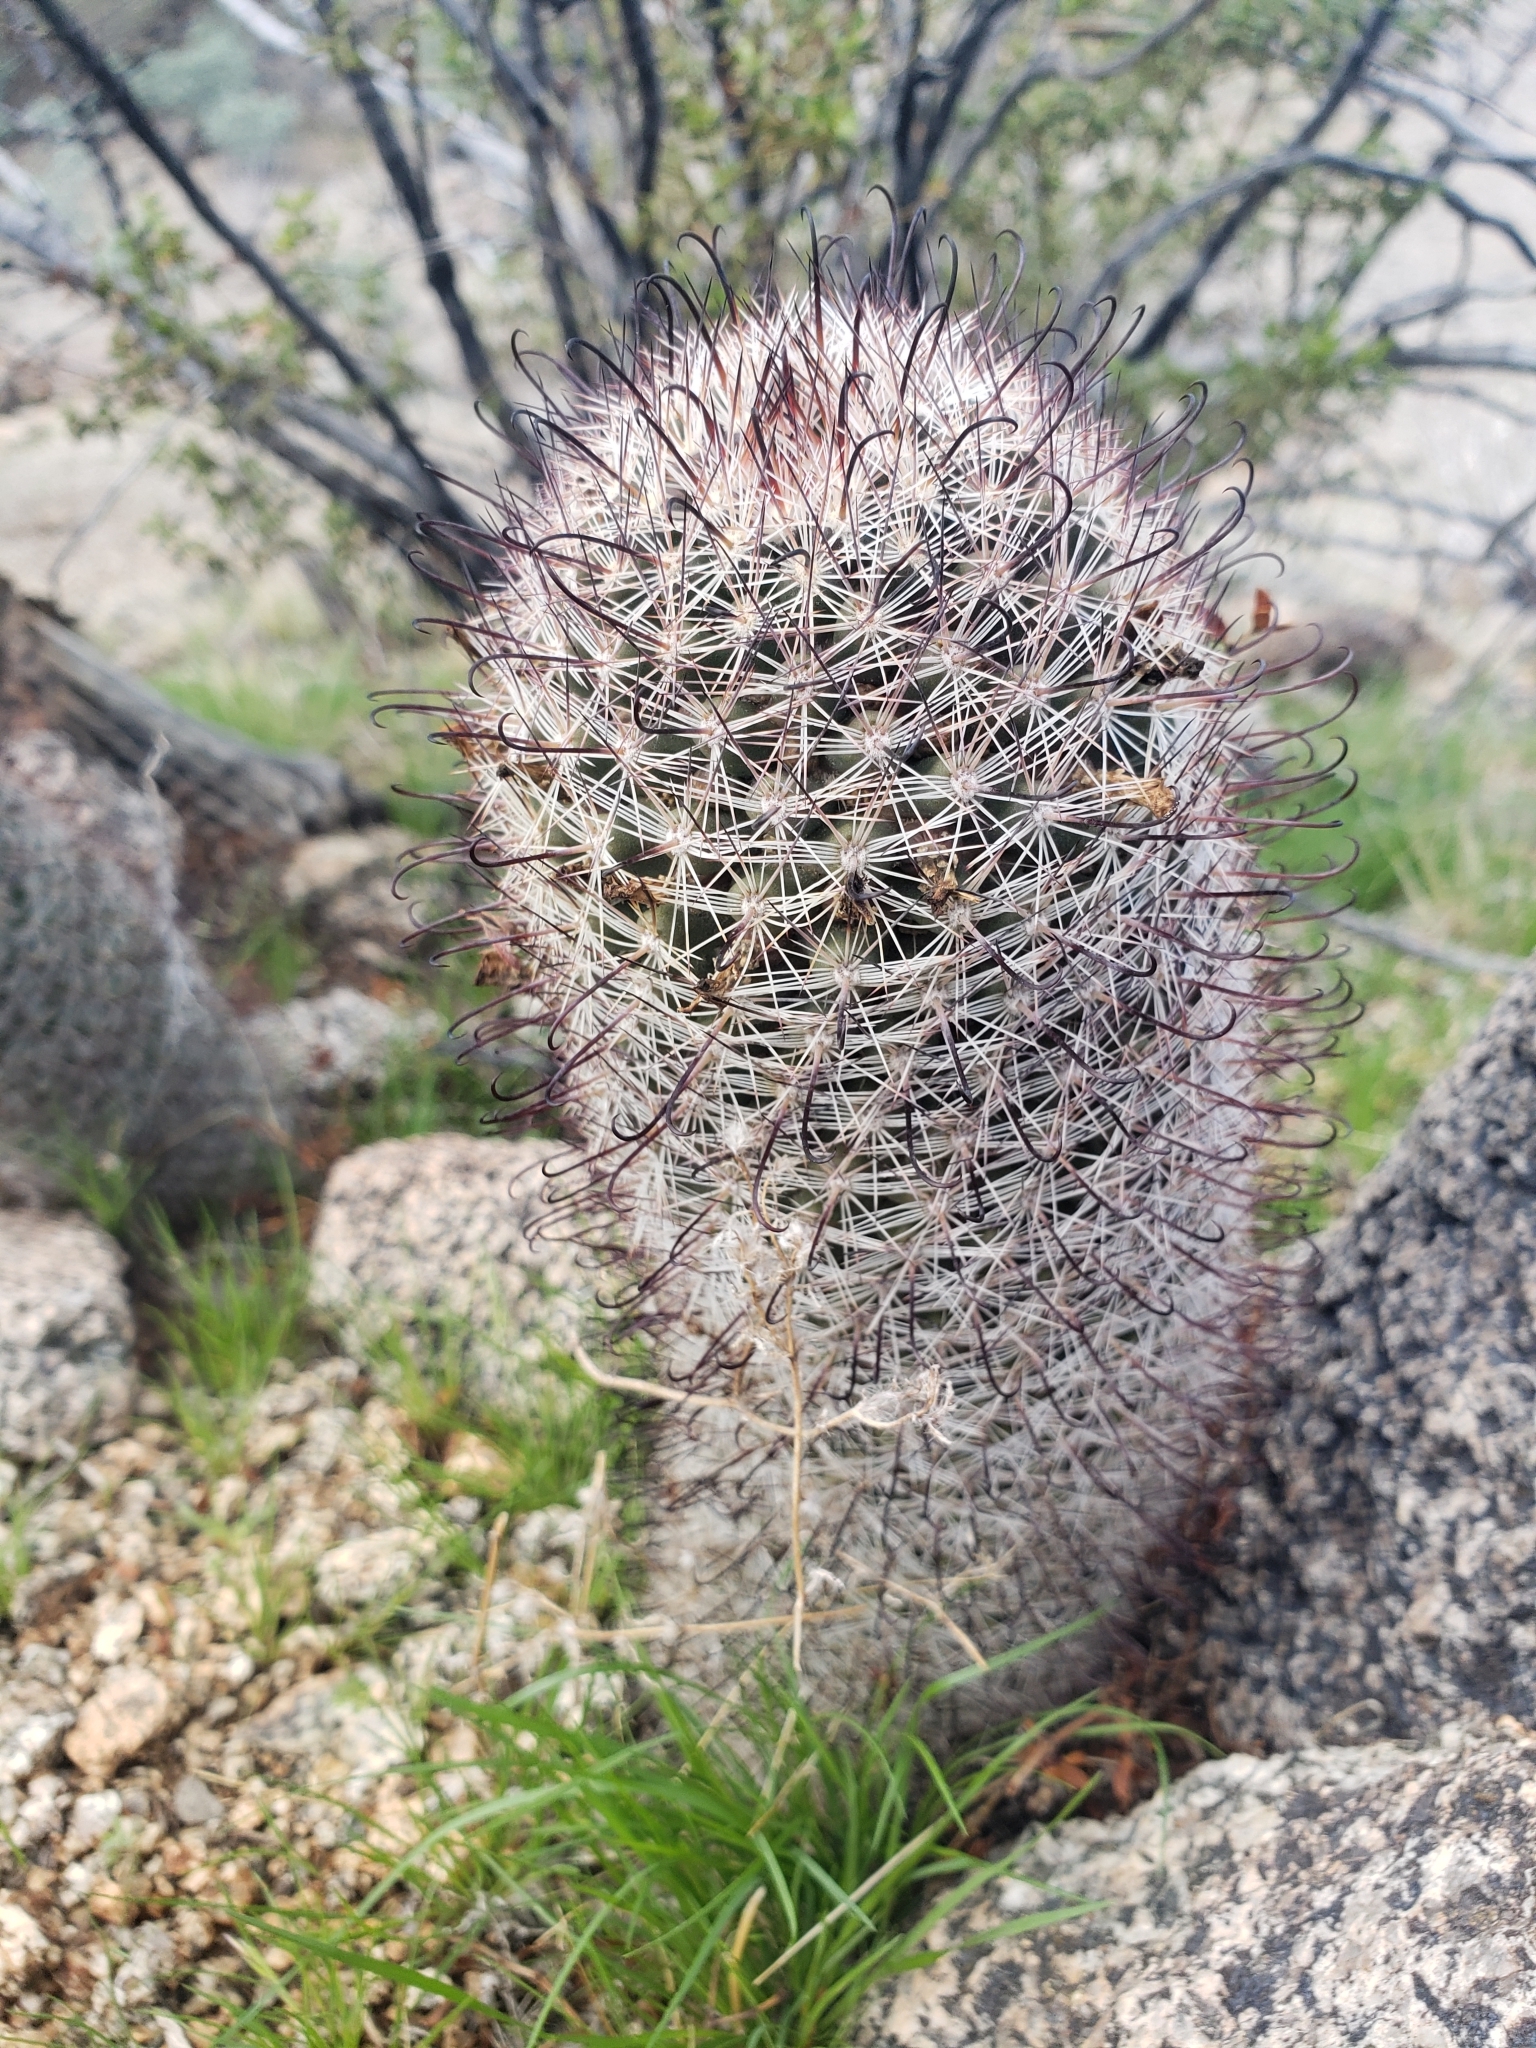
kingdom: Plantae
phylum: Tracheophyta
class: Magnoliopsida
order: Caryophyllales
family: Cactaceae
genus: Cochemiea
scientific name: Cochemiea grahamii
